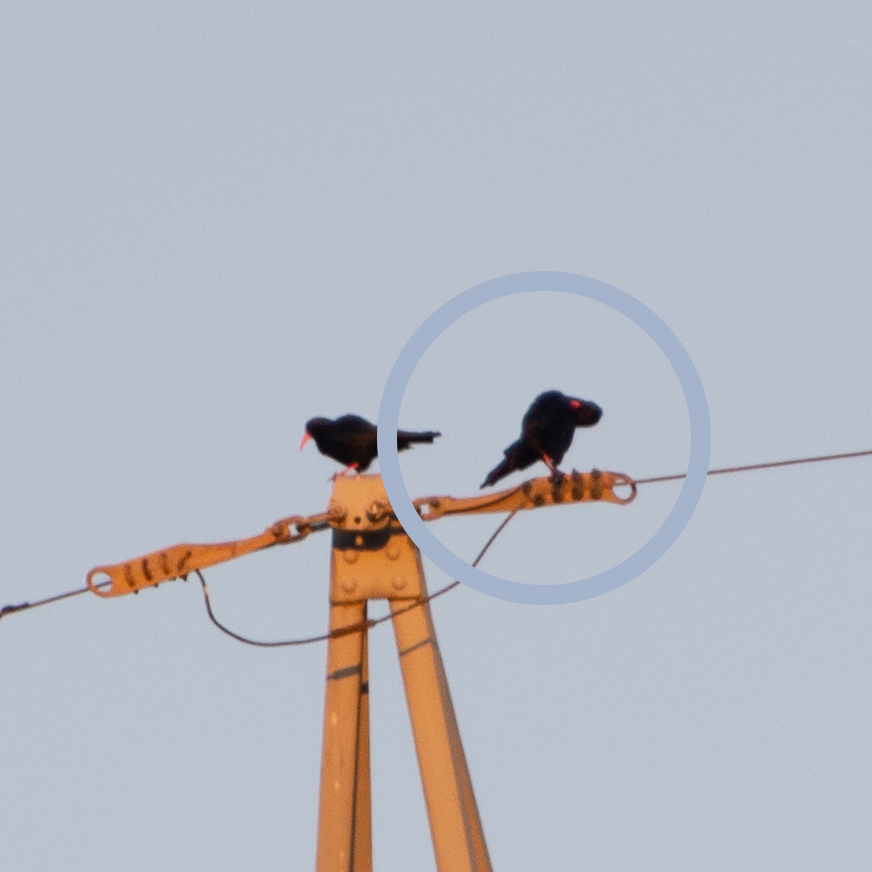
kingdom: Animalia
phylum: Chordata
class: Aves
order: Passeriformes
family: Corvidae
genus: Pyrrhocorax
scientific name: Pyrrhocorax pyrrhocorax
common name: Red-billed chough
